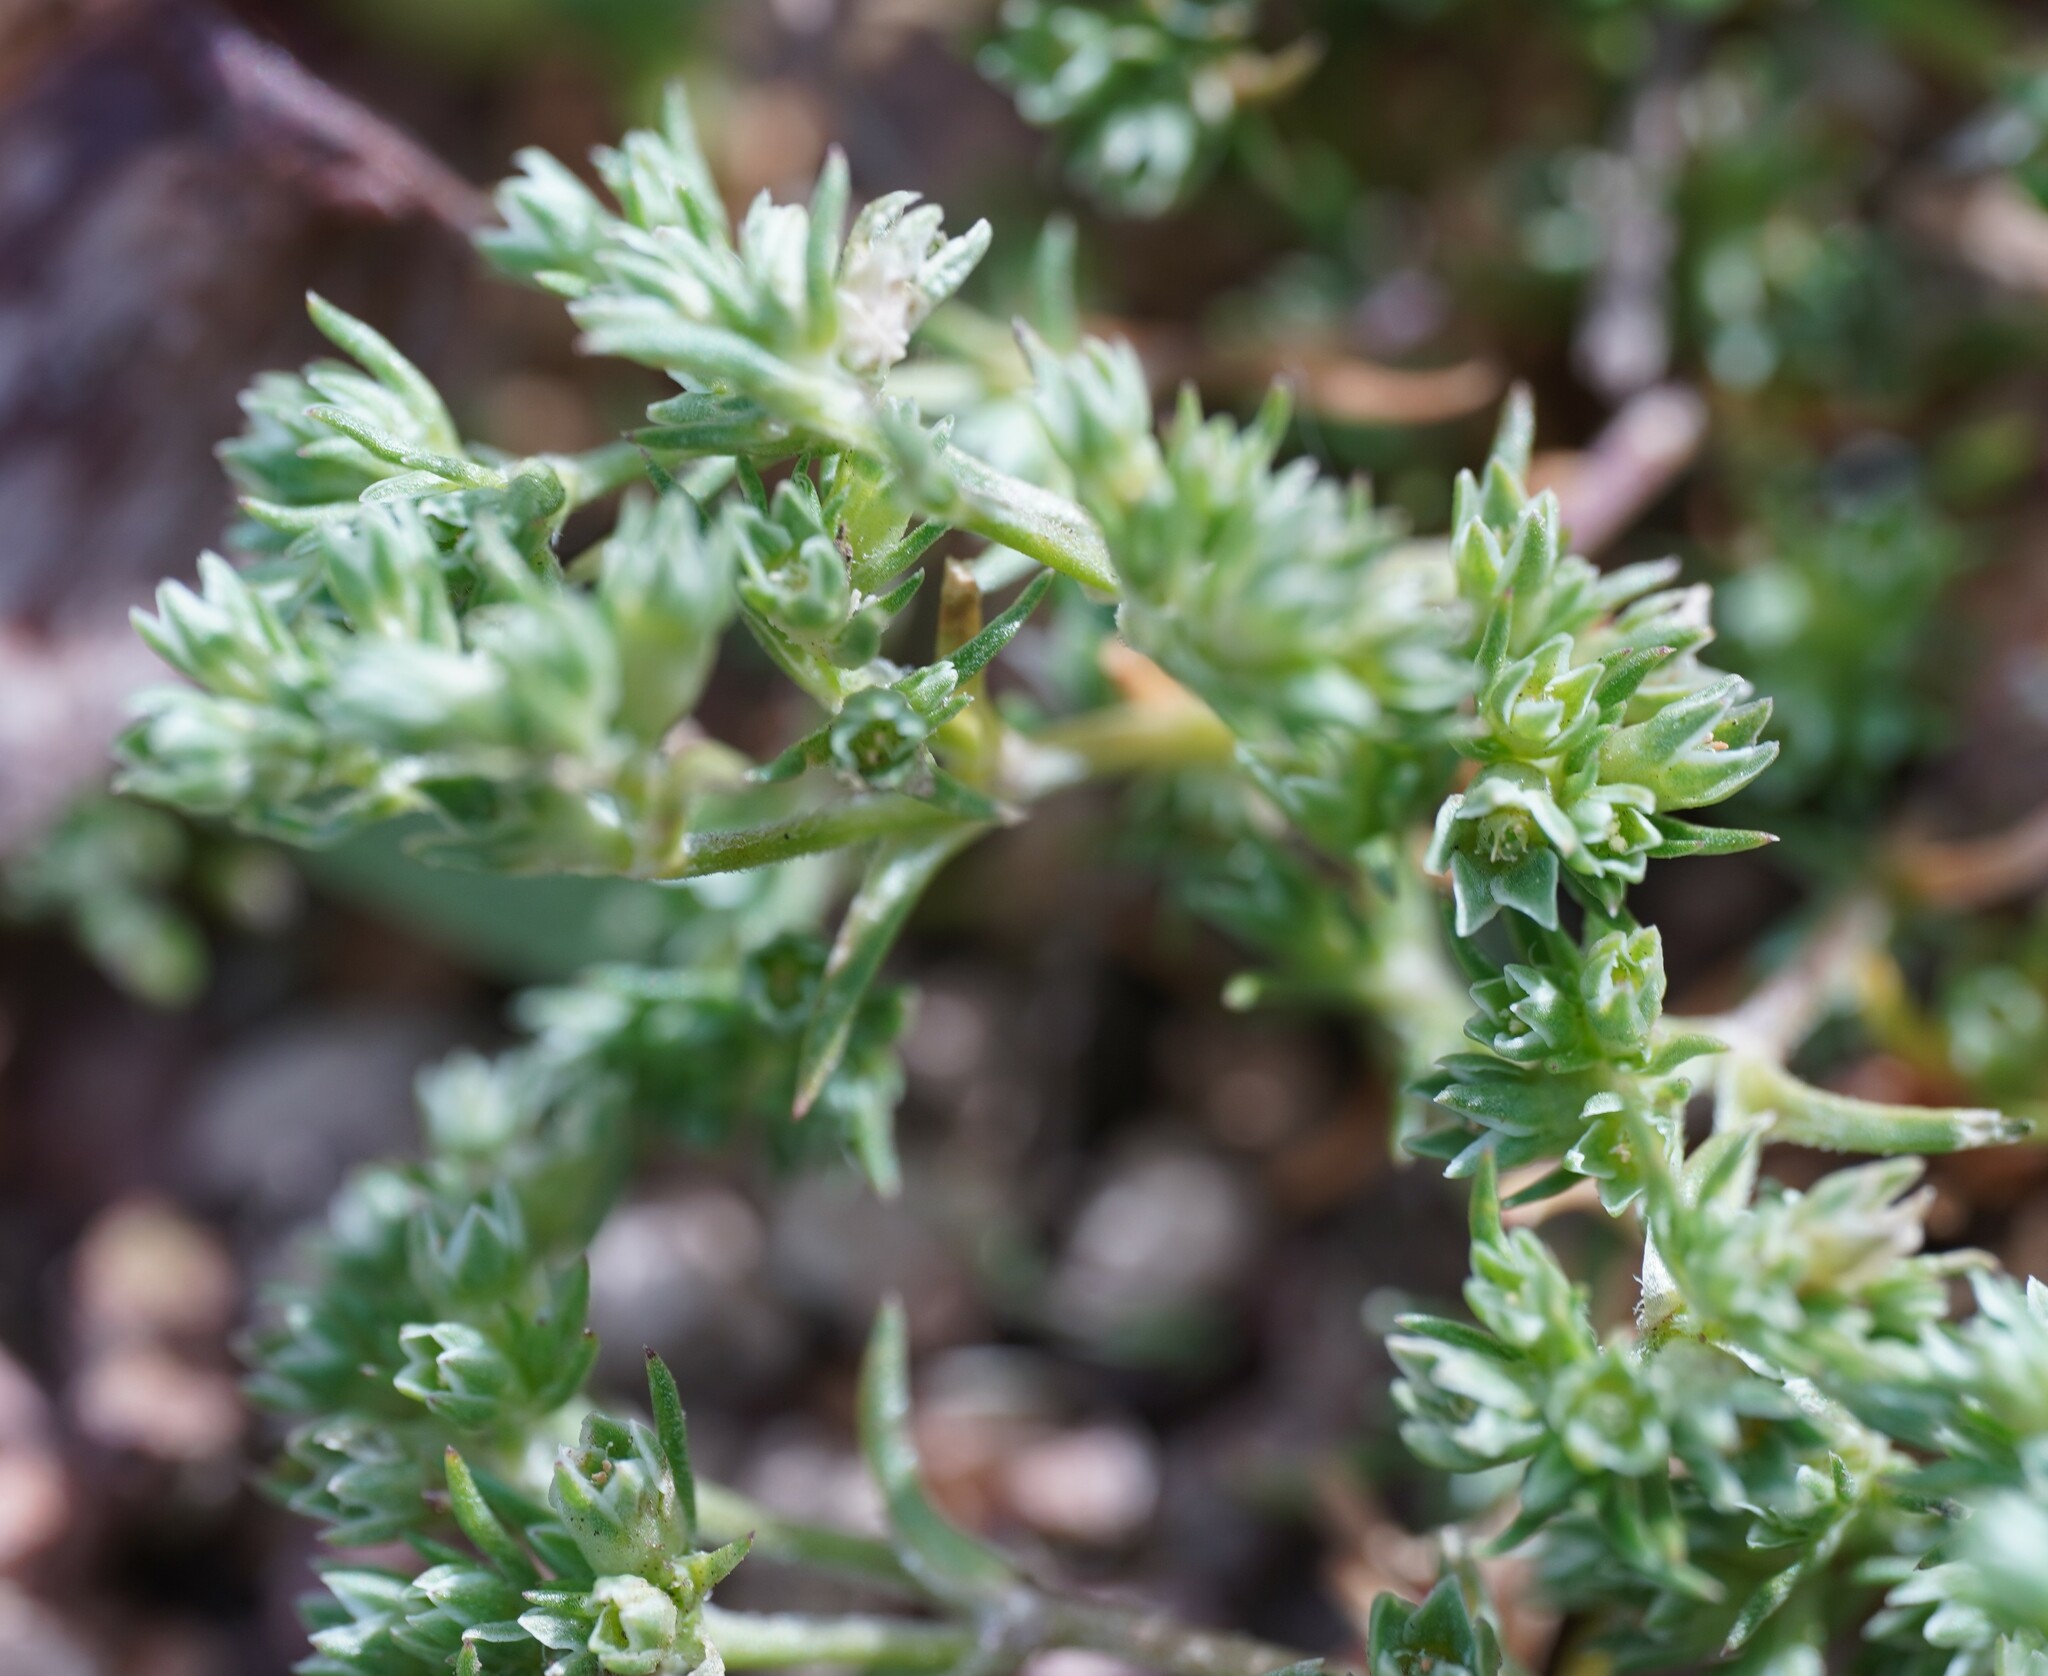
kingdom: Plantae
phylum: Tracheophyta
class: Magnoliopsida
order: Caryophyllales
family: Caryophyllaceae
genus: Scleranthus
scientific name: Scleranthus annuus
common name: Annual knawel
